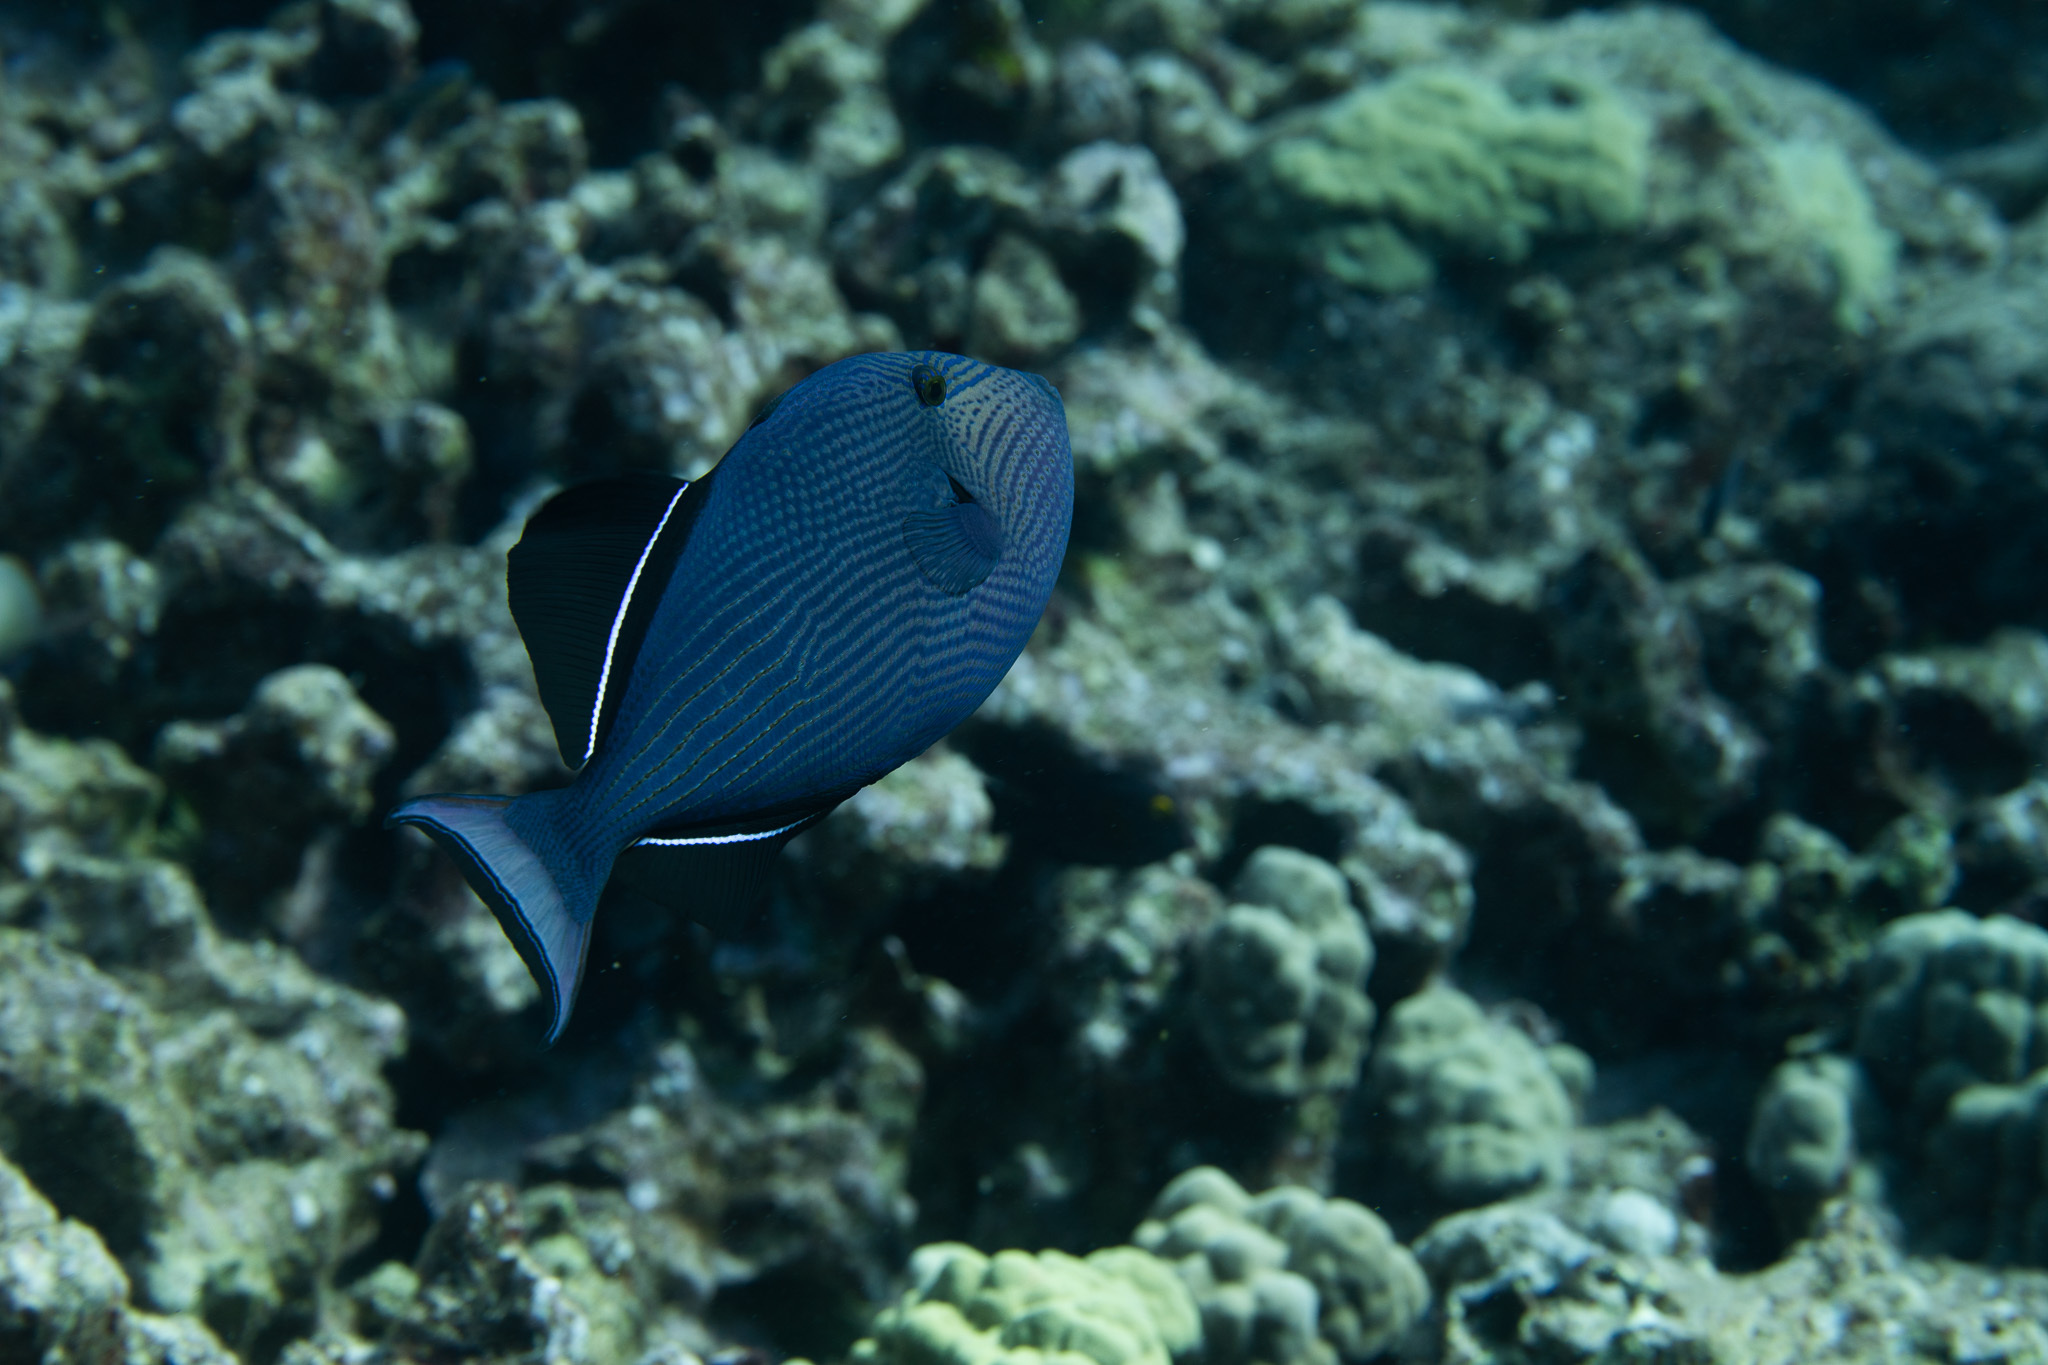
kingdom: Animalia
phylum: Chordata
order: Tetraodontiformes
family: Balistidae
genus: Melichthys
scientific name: Melichthys niger
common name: Black durgon
